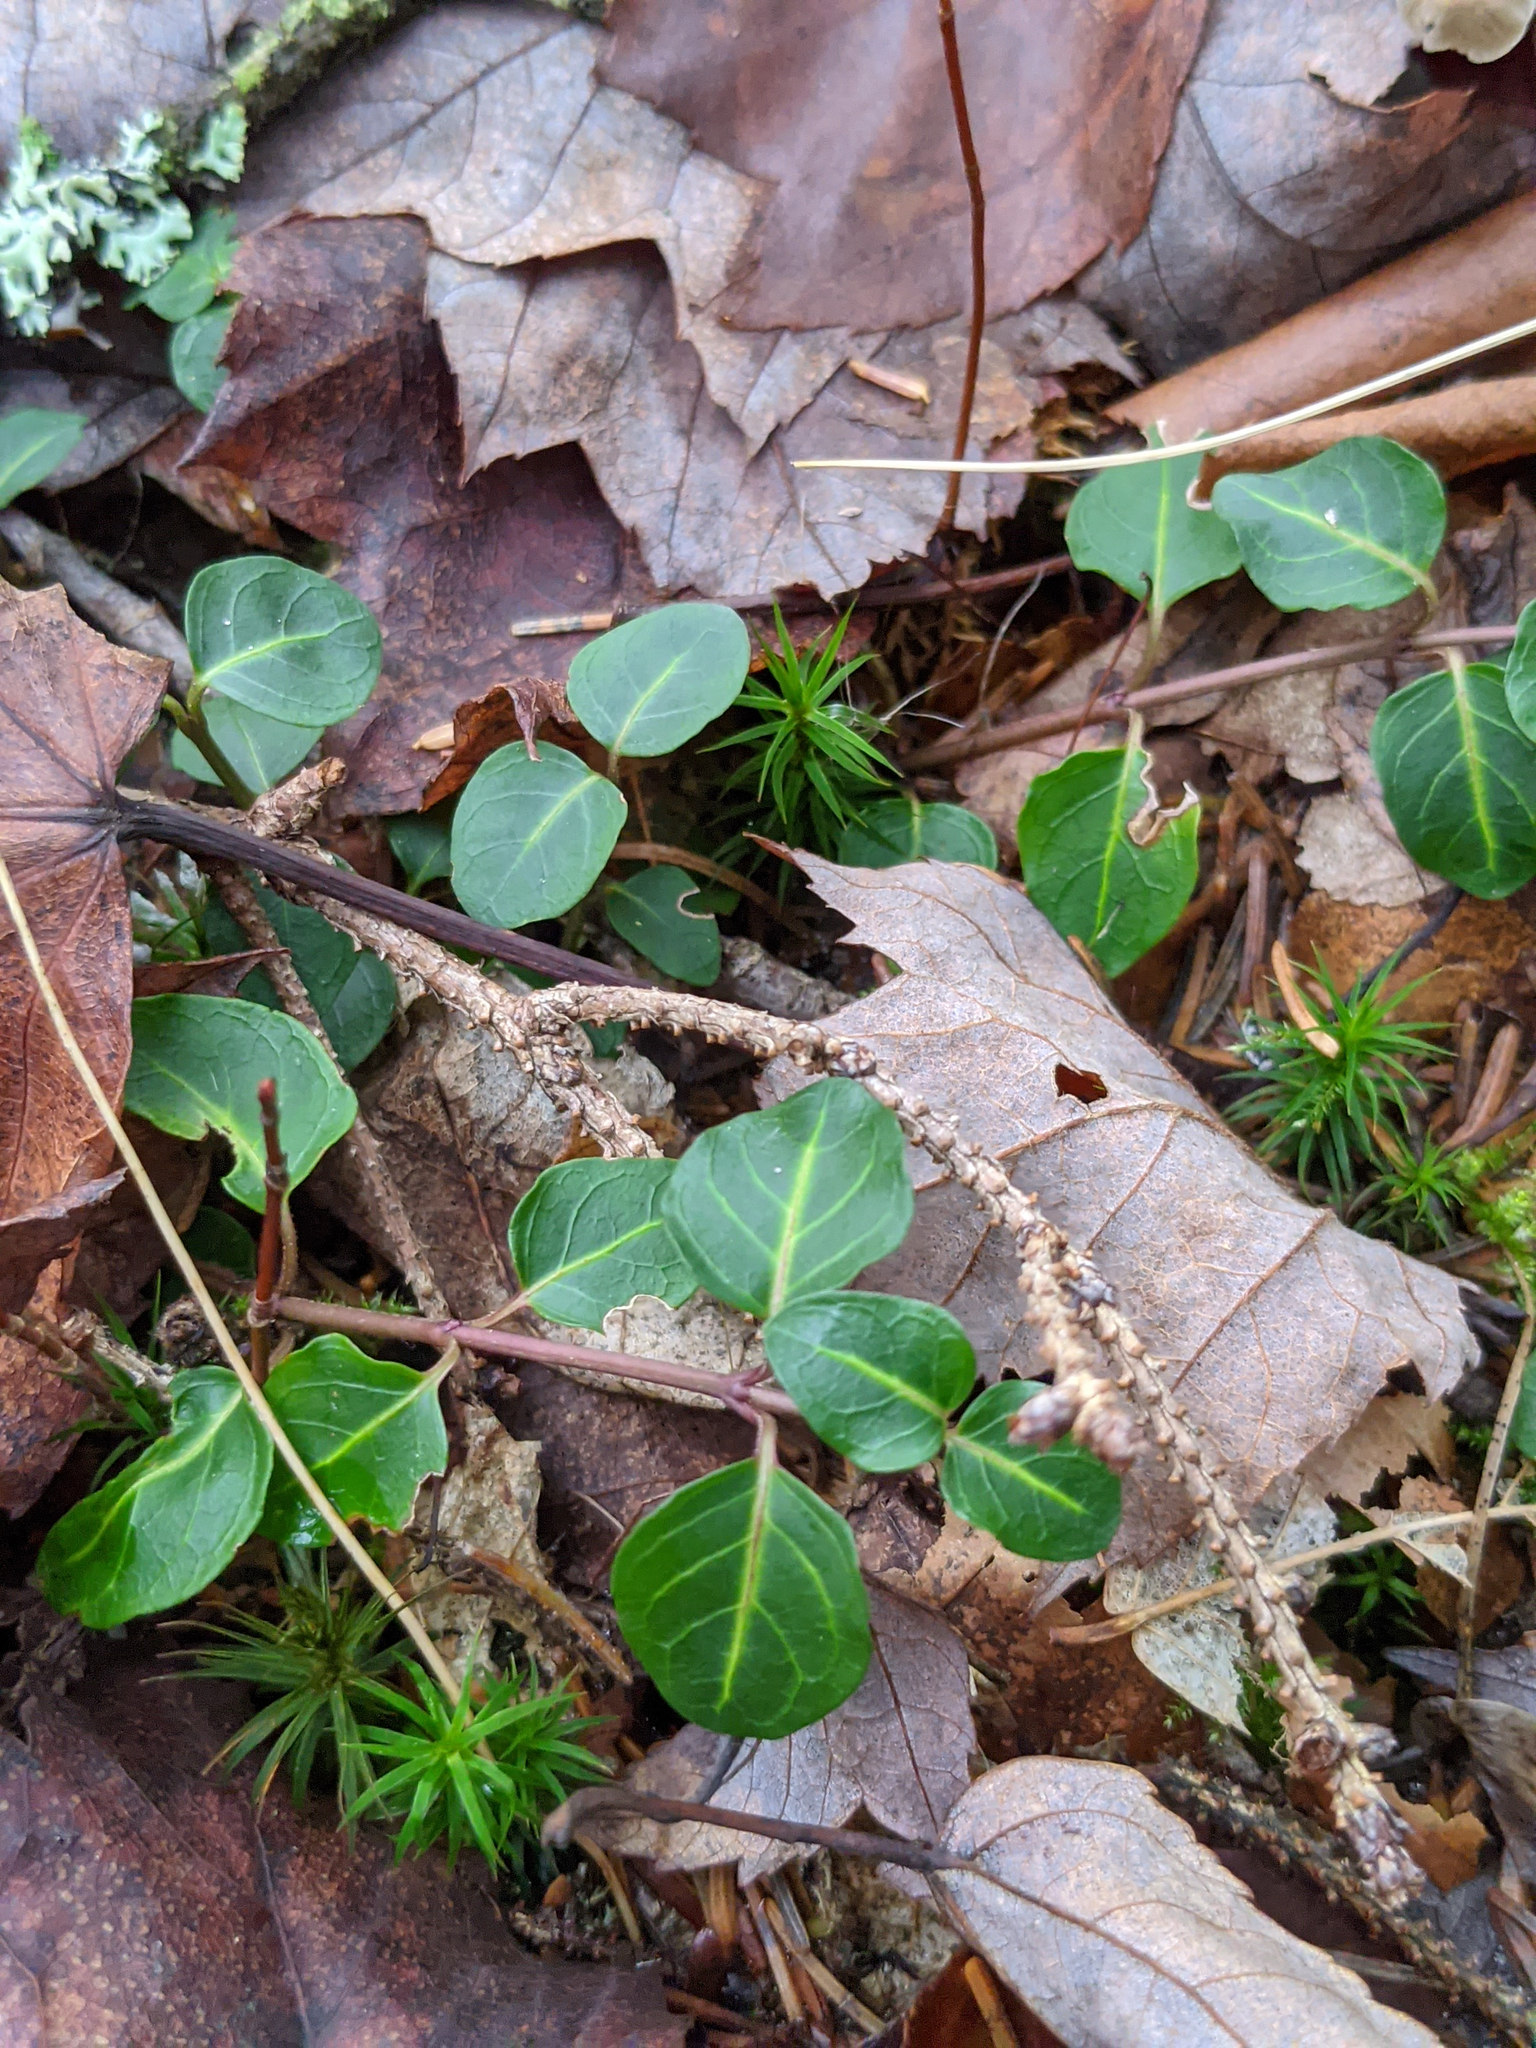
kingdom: Plantae
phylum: Tracheophyta
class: Magnoliopsida
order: Gentianales
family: Rubiaceae
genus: Mitchella
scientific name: Mitchella repens
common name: Partridge-berry
